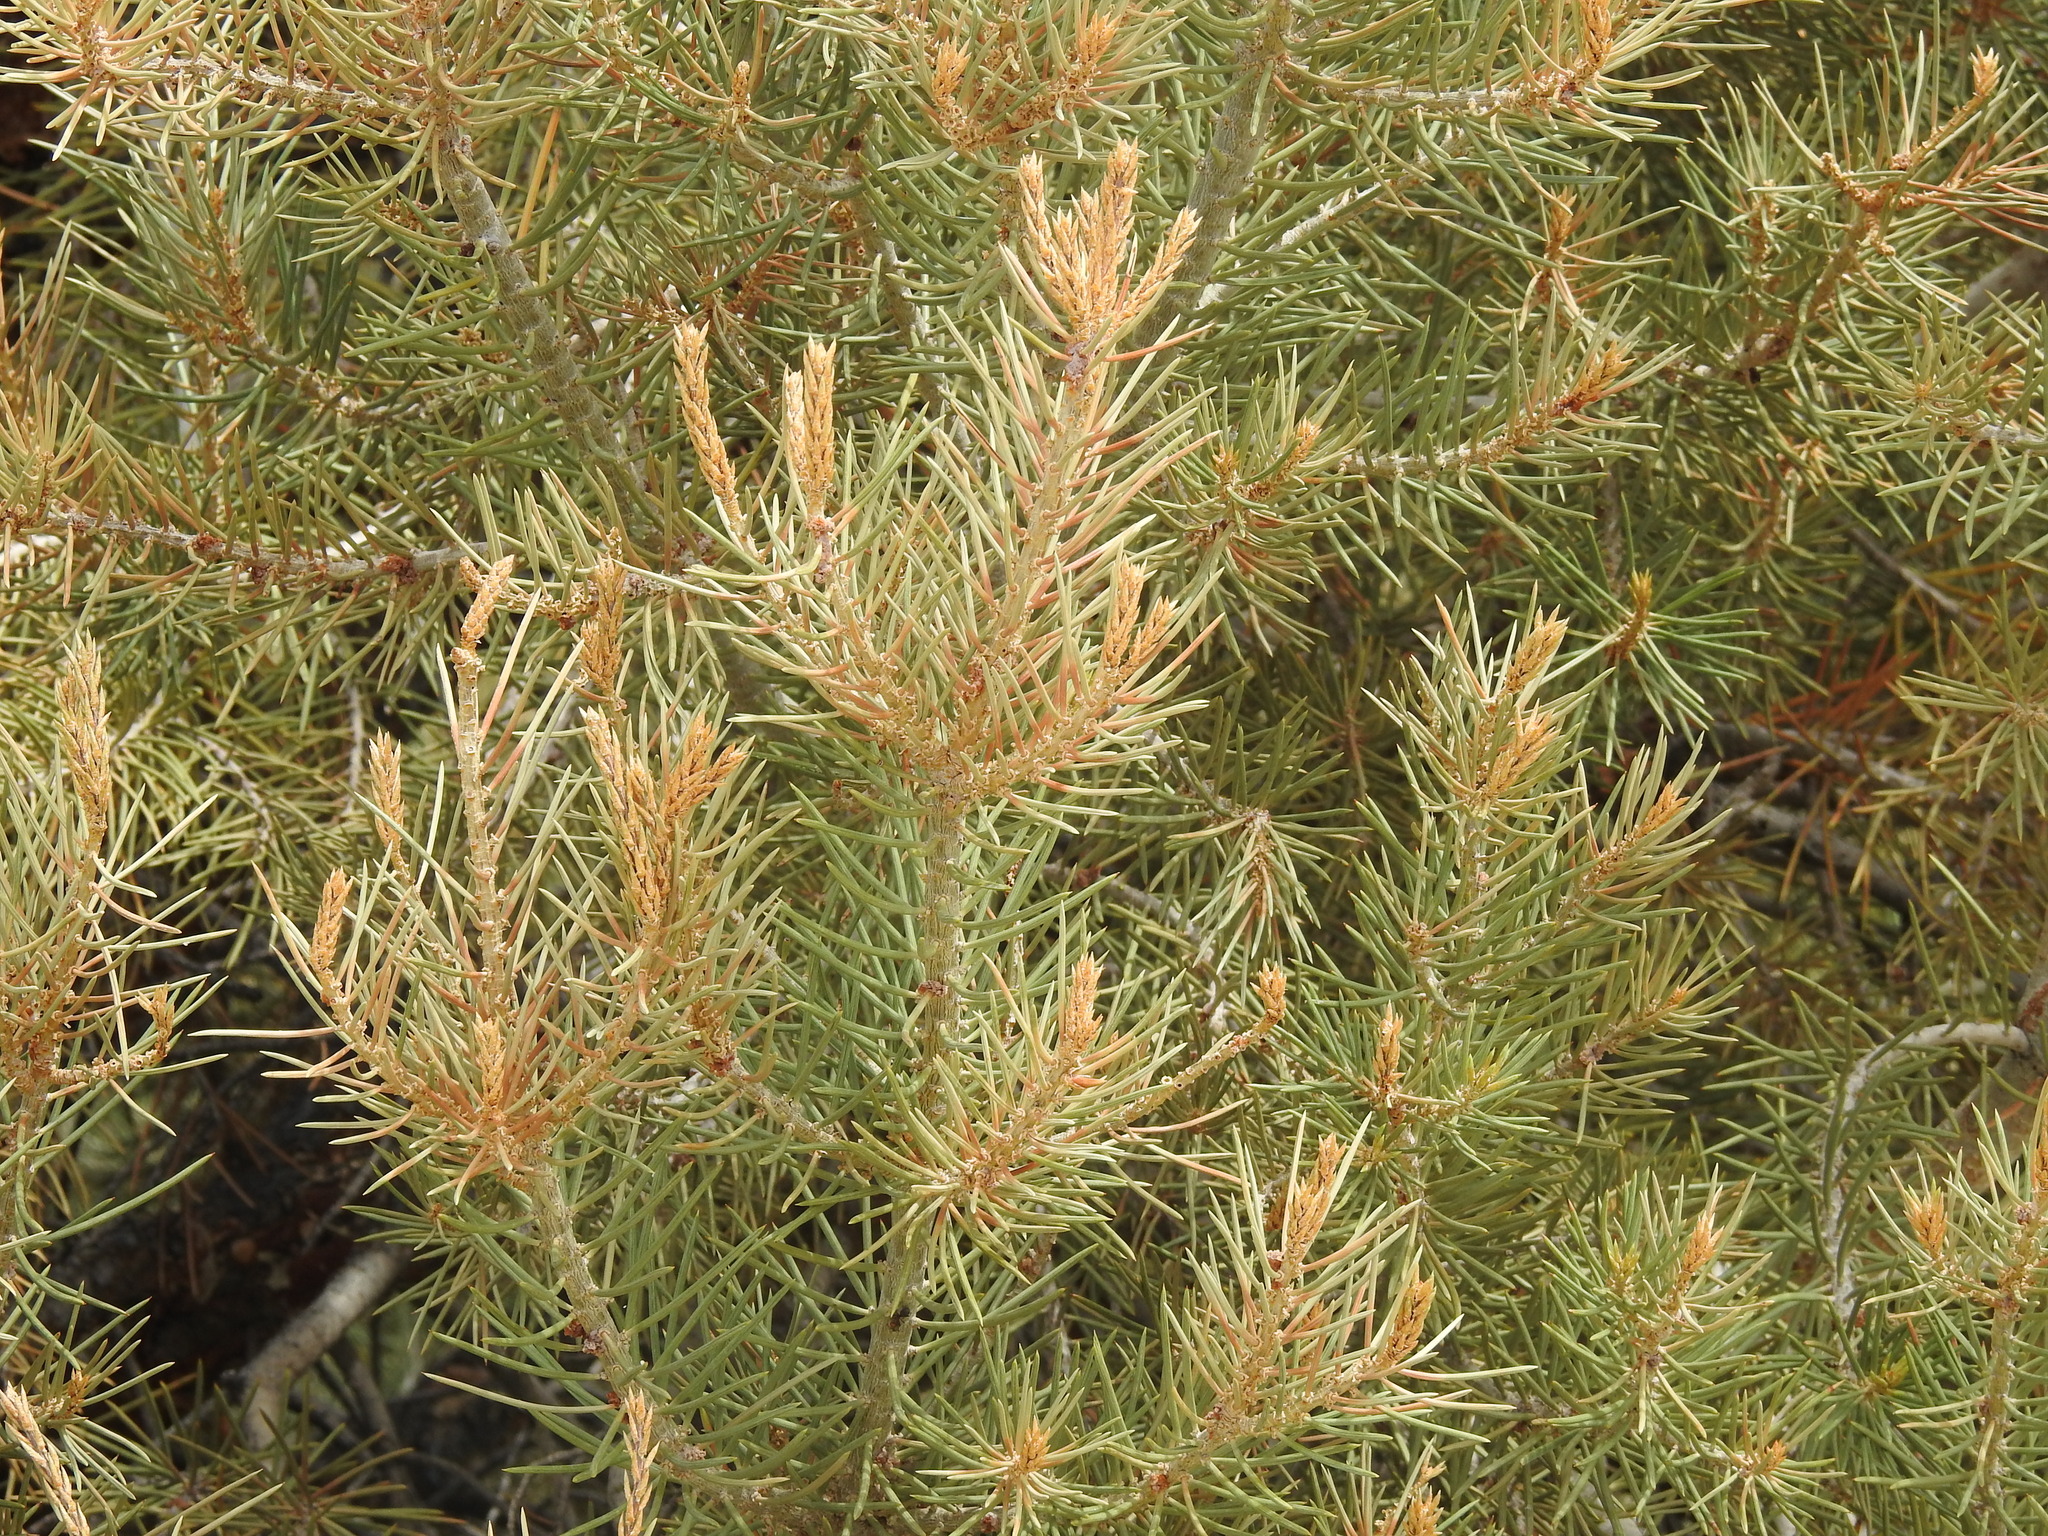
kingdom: Plantae
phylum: Tracheophyta
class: Pinopsida
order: Pinales
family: Pinaceae
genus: Pinus
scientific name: Pinus monophylla
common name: One-leaved nut pine
